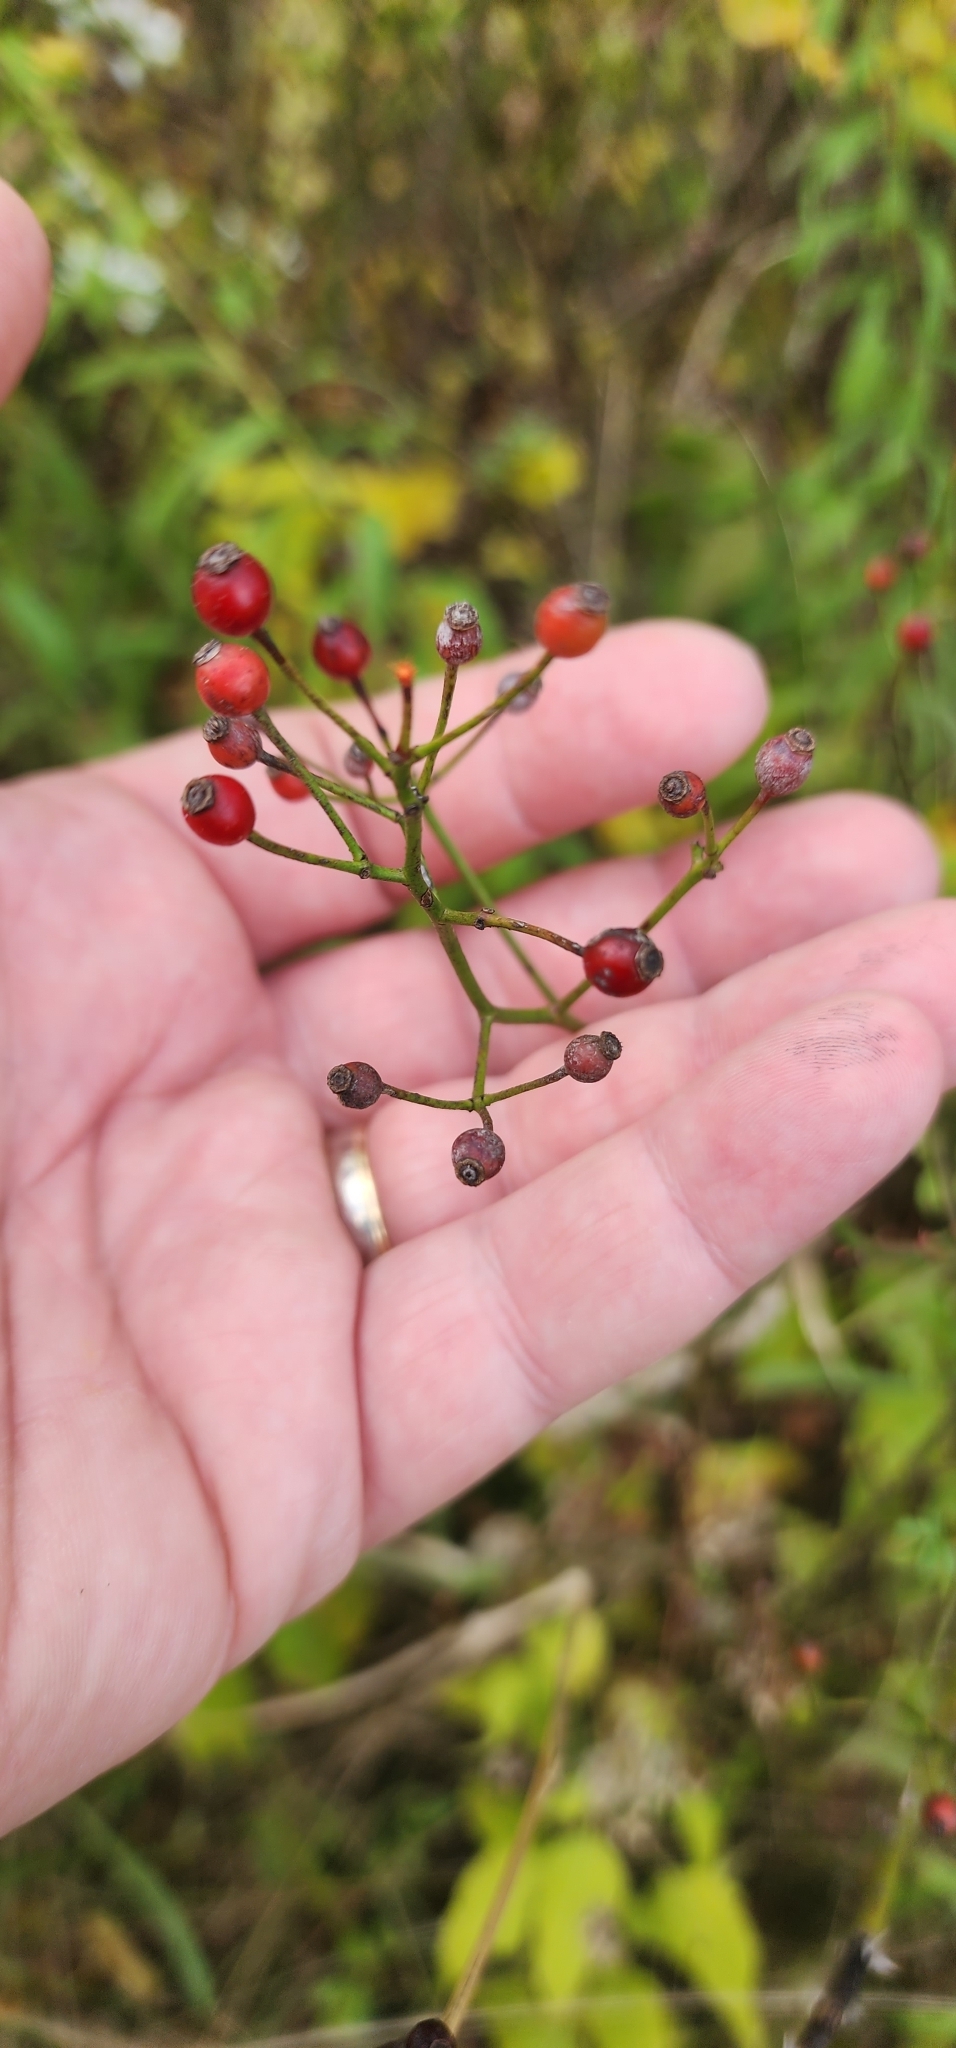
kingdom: Plantae
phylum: Tracheophyta
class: Magnoliopsida
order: Rosales
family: Rosaceae
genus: Rosa
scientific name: Rosa multiflora
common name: Multiflora rose
